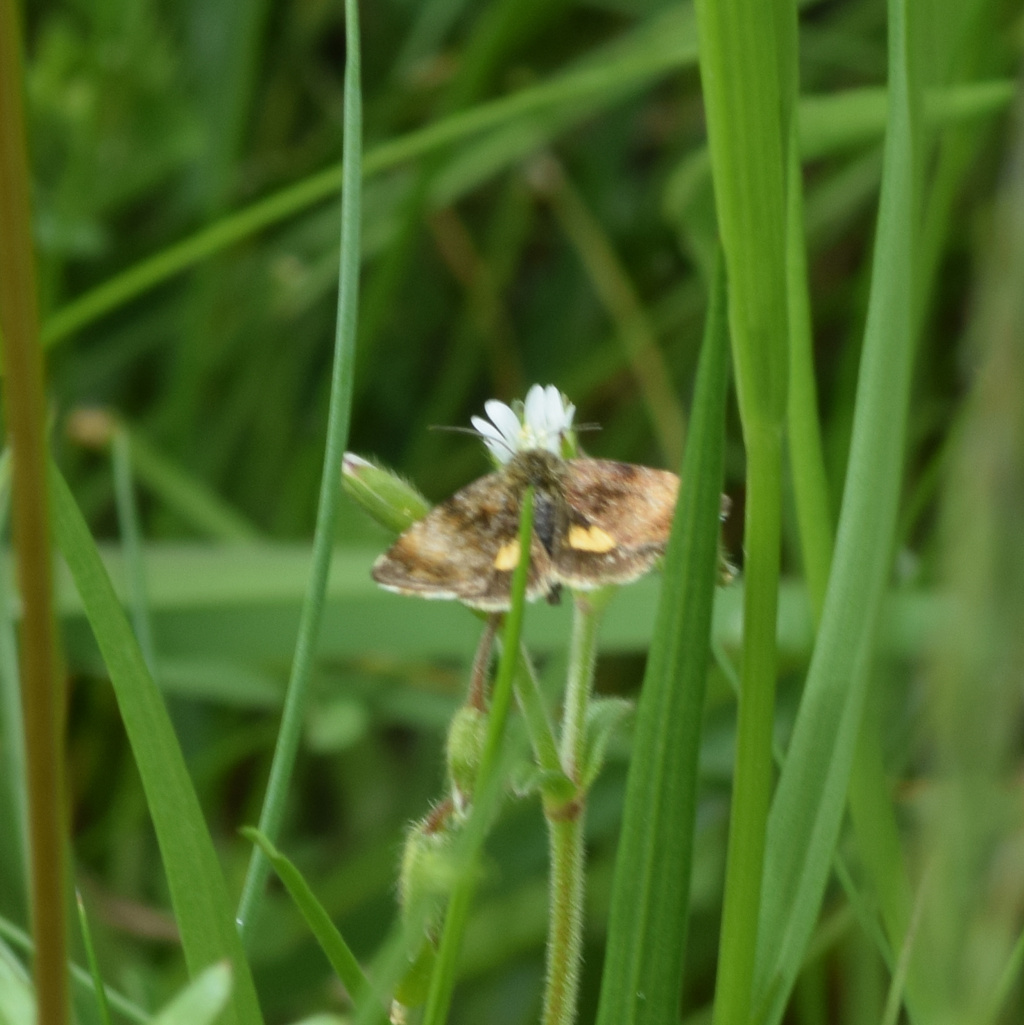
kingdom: Animalia
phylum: Arthropoda
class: Insecta
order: Lepidoptera
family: Noctuidae
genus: Panemeria
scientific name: Panemeria tenebrata
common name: Small yellow underwing
